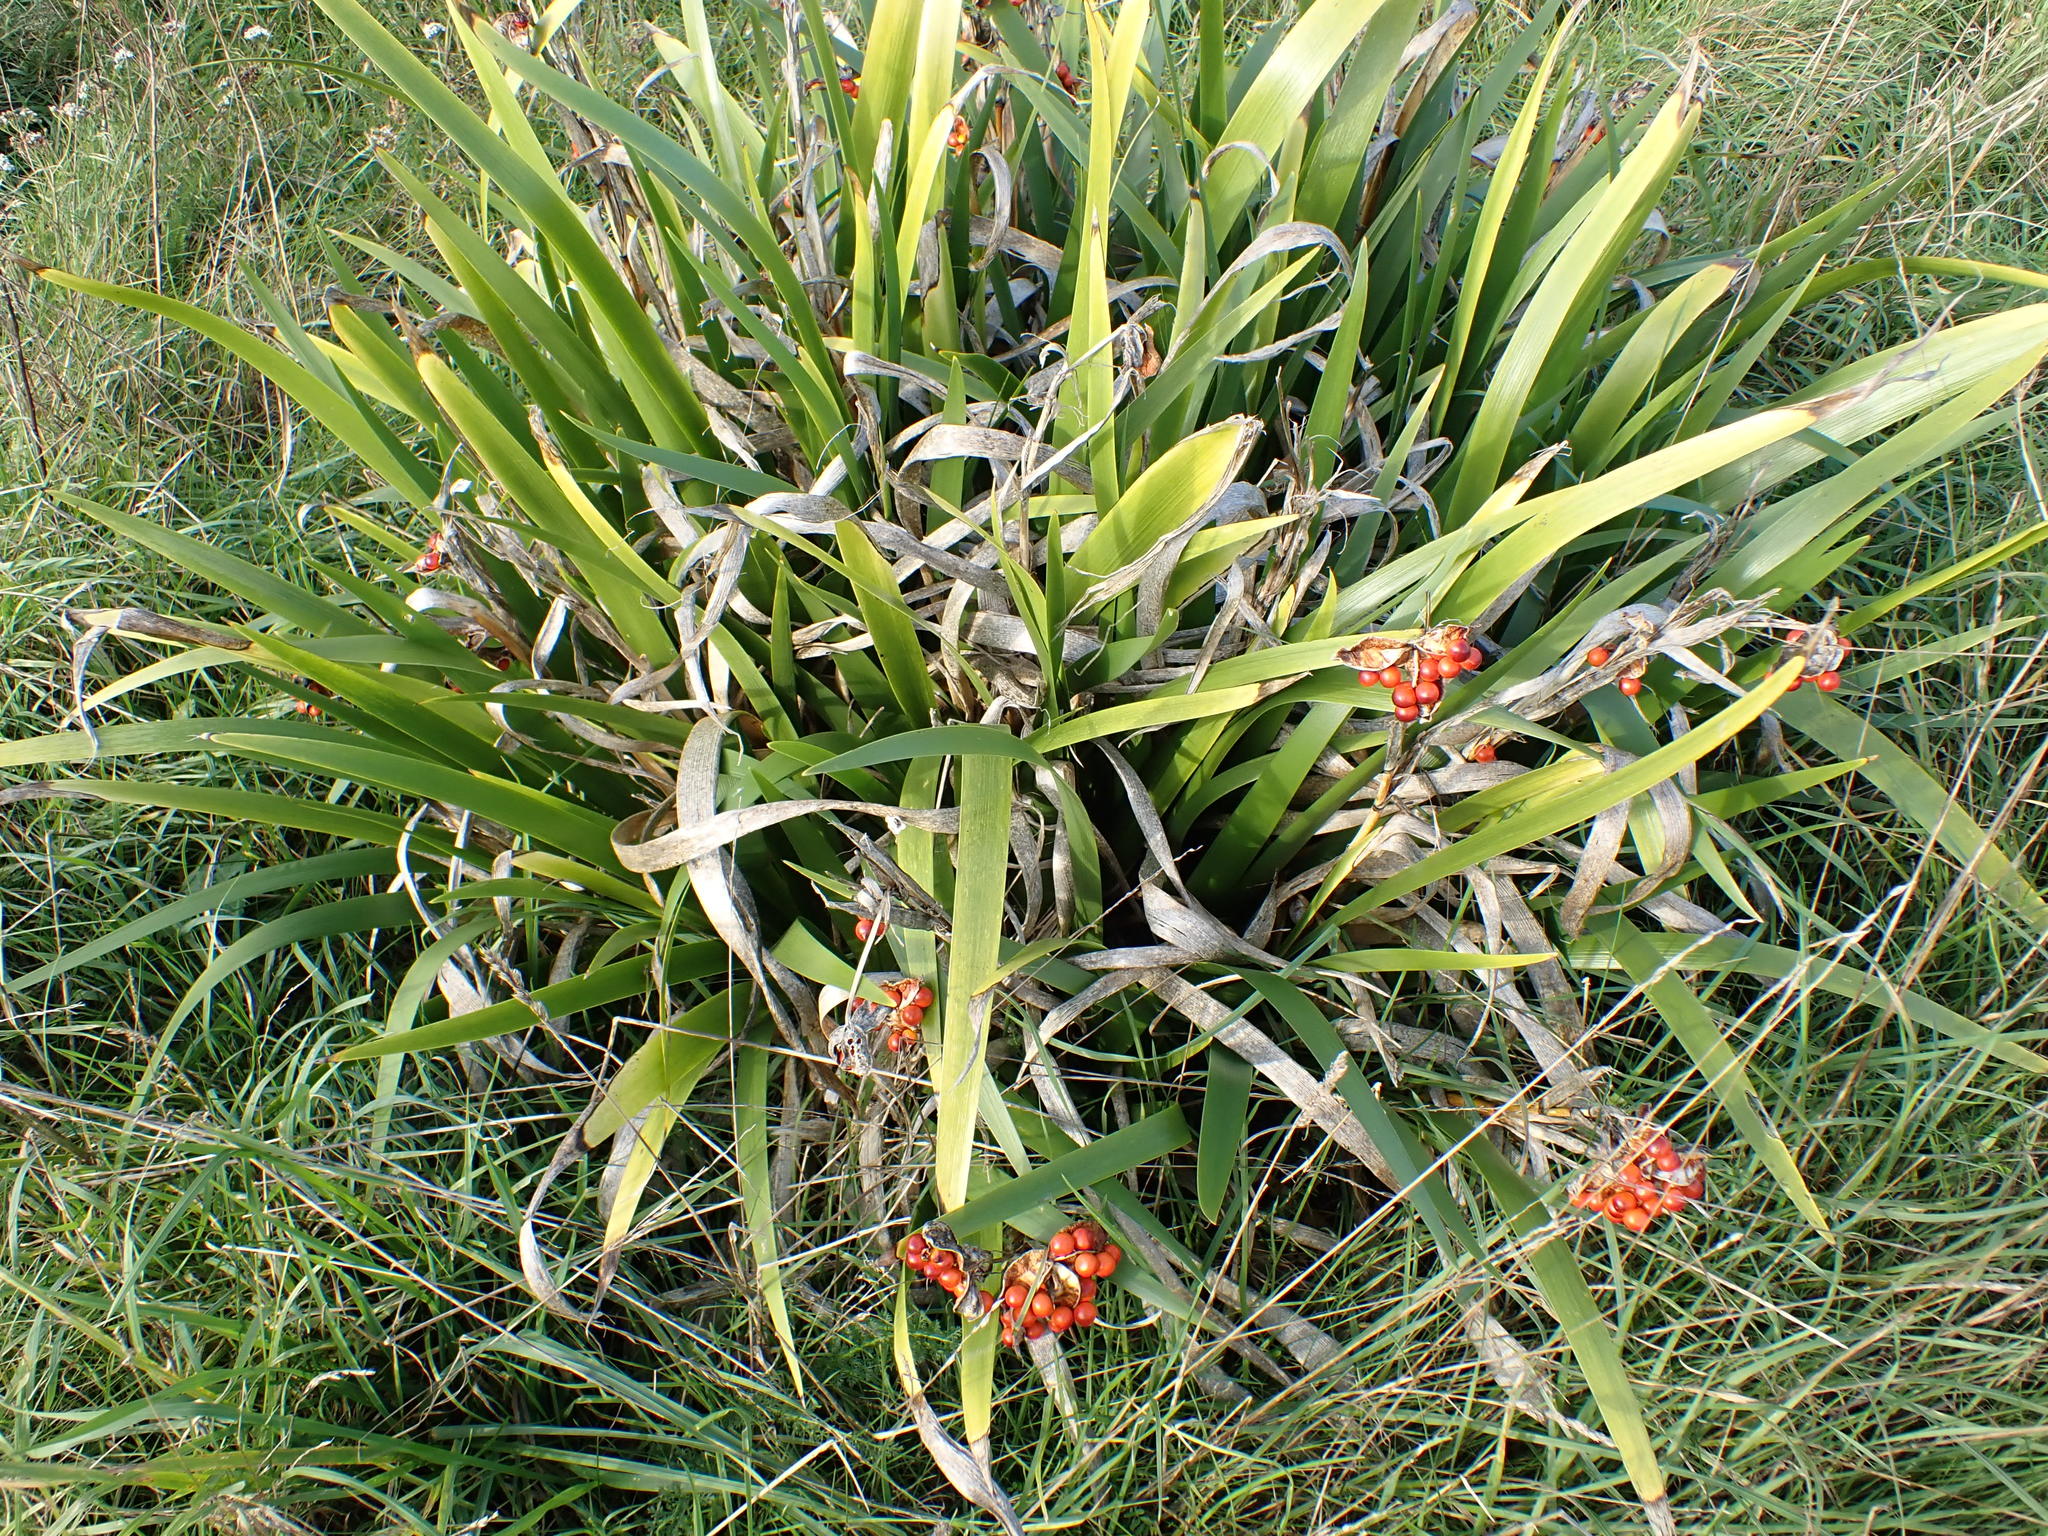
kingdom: Plantae
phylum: Tracheophyta
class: Liliopsida
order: Asparagales
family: Iridaceae
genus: Iris
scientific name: Iris foetidissima
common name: Stinking iris
